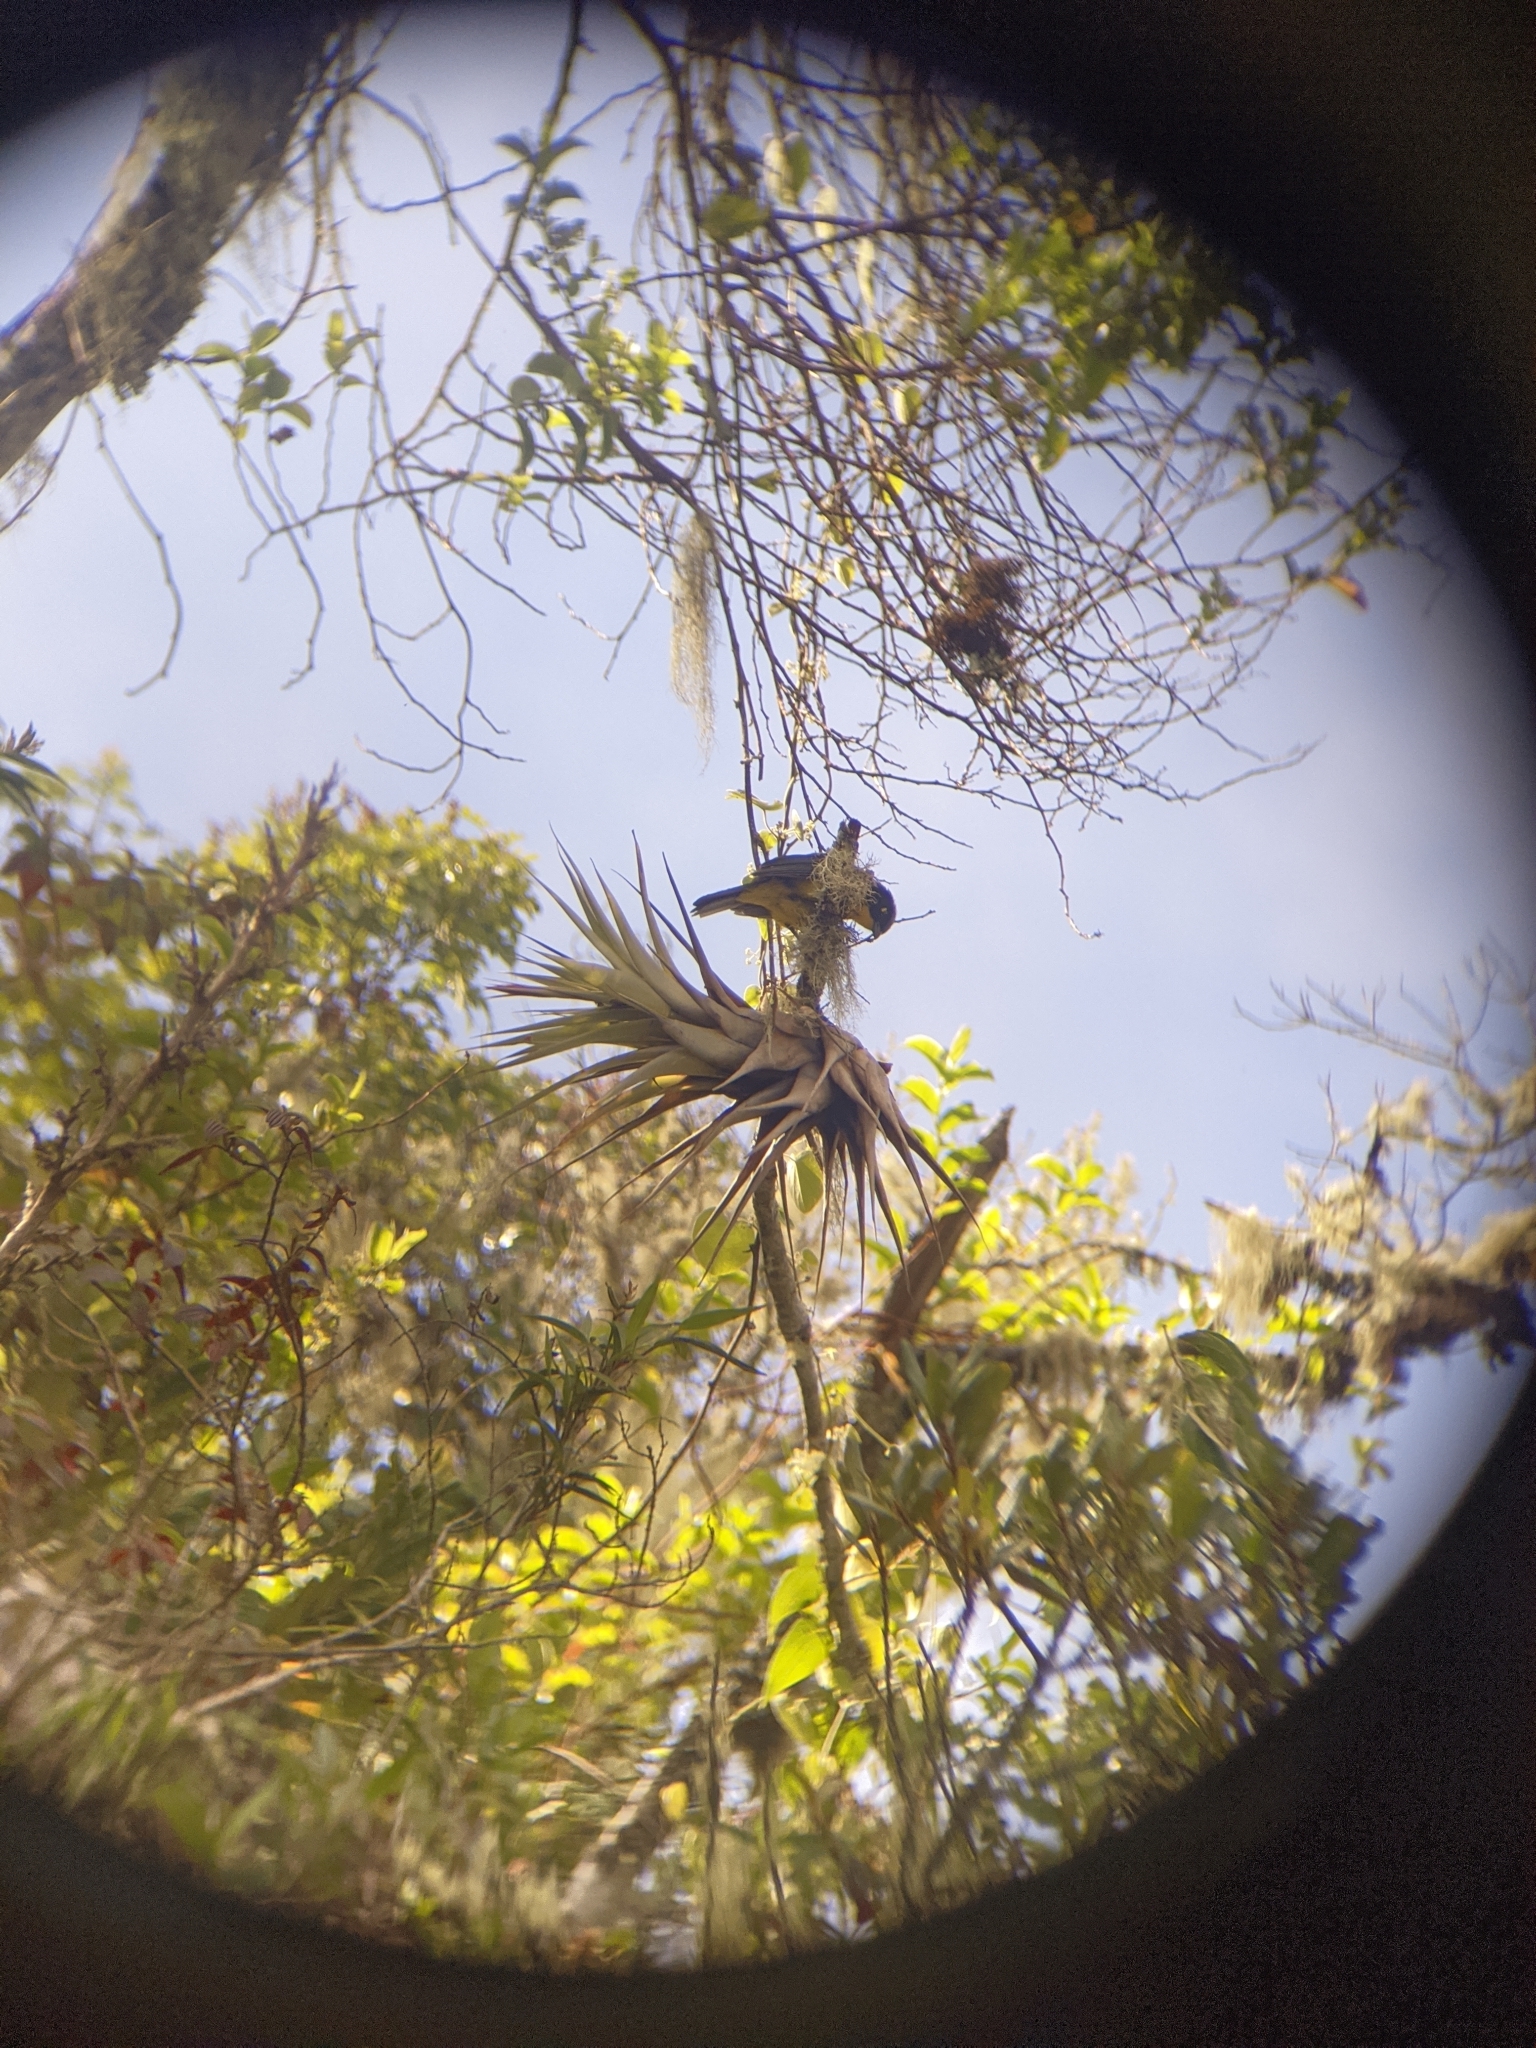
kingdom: Animalia
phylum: Chordata
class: Aves
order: Passeriformes
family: Thraupidae
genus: Anisognathus
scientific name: Anisognathus melanogenys
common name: Santa marta mountain tanager
